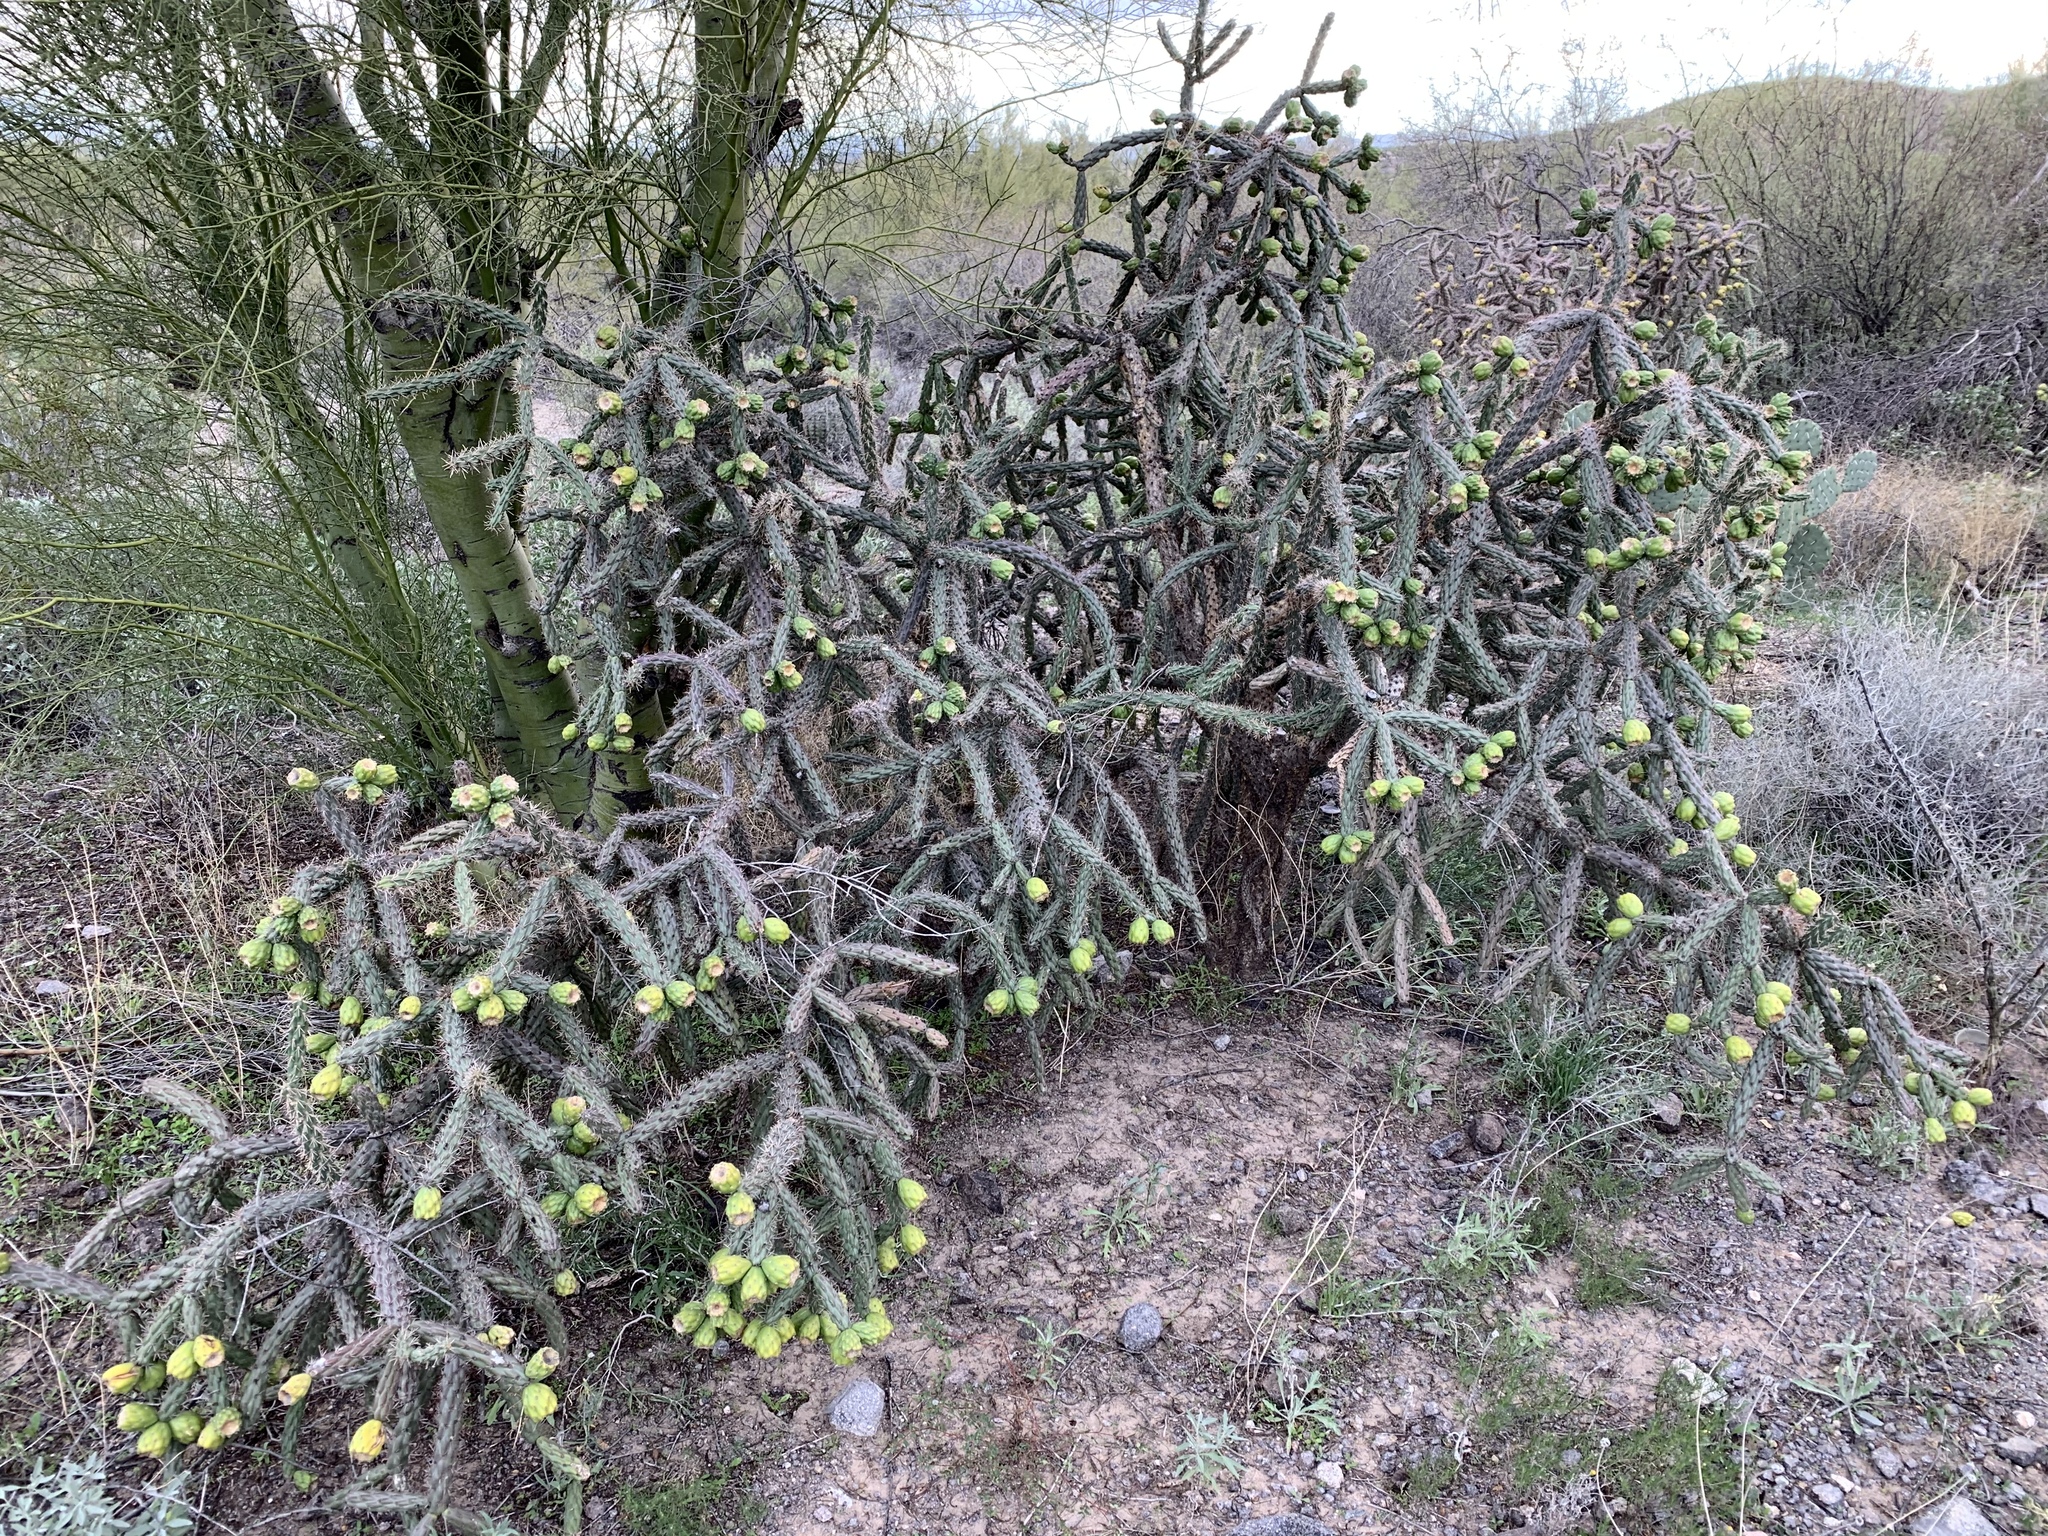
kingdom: Plantae
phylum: Tracheophyta
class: Magnoliopsida
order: Caryophyllales
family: Cactaceae
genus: Cylindropuntia
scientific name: Cylindropuntia thurberi
